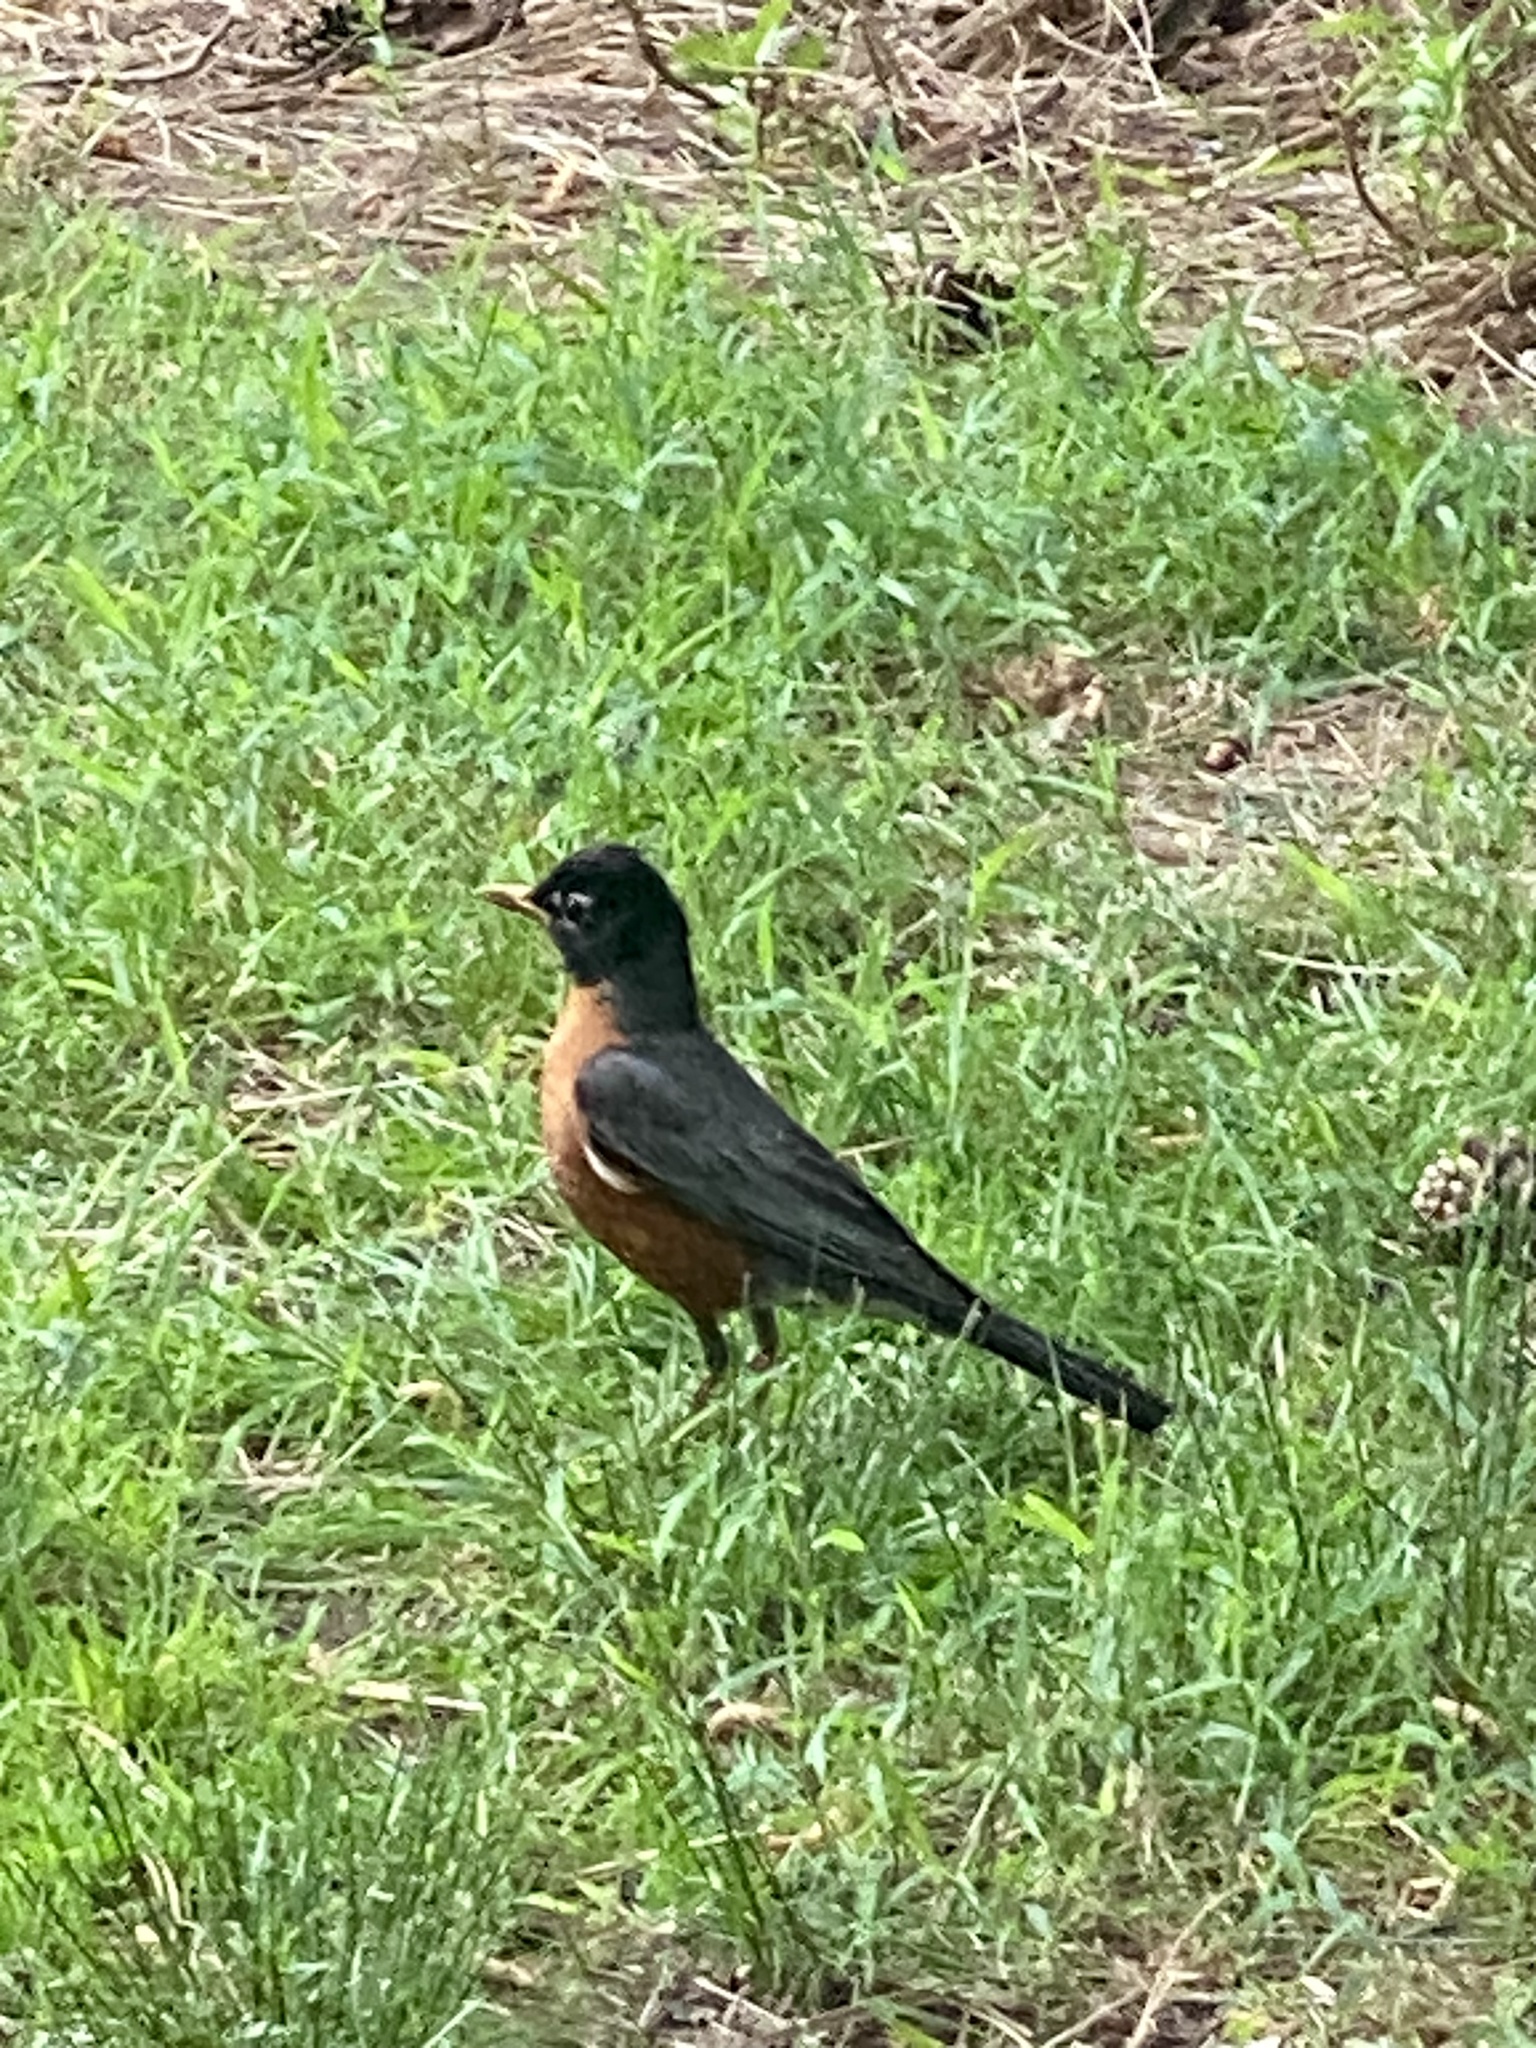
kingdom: Animalia
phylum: Chordata
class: Aves
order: Passeriformes
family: Turdidae
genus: Turdus
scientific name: Turdus migratorius
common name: American robin
